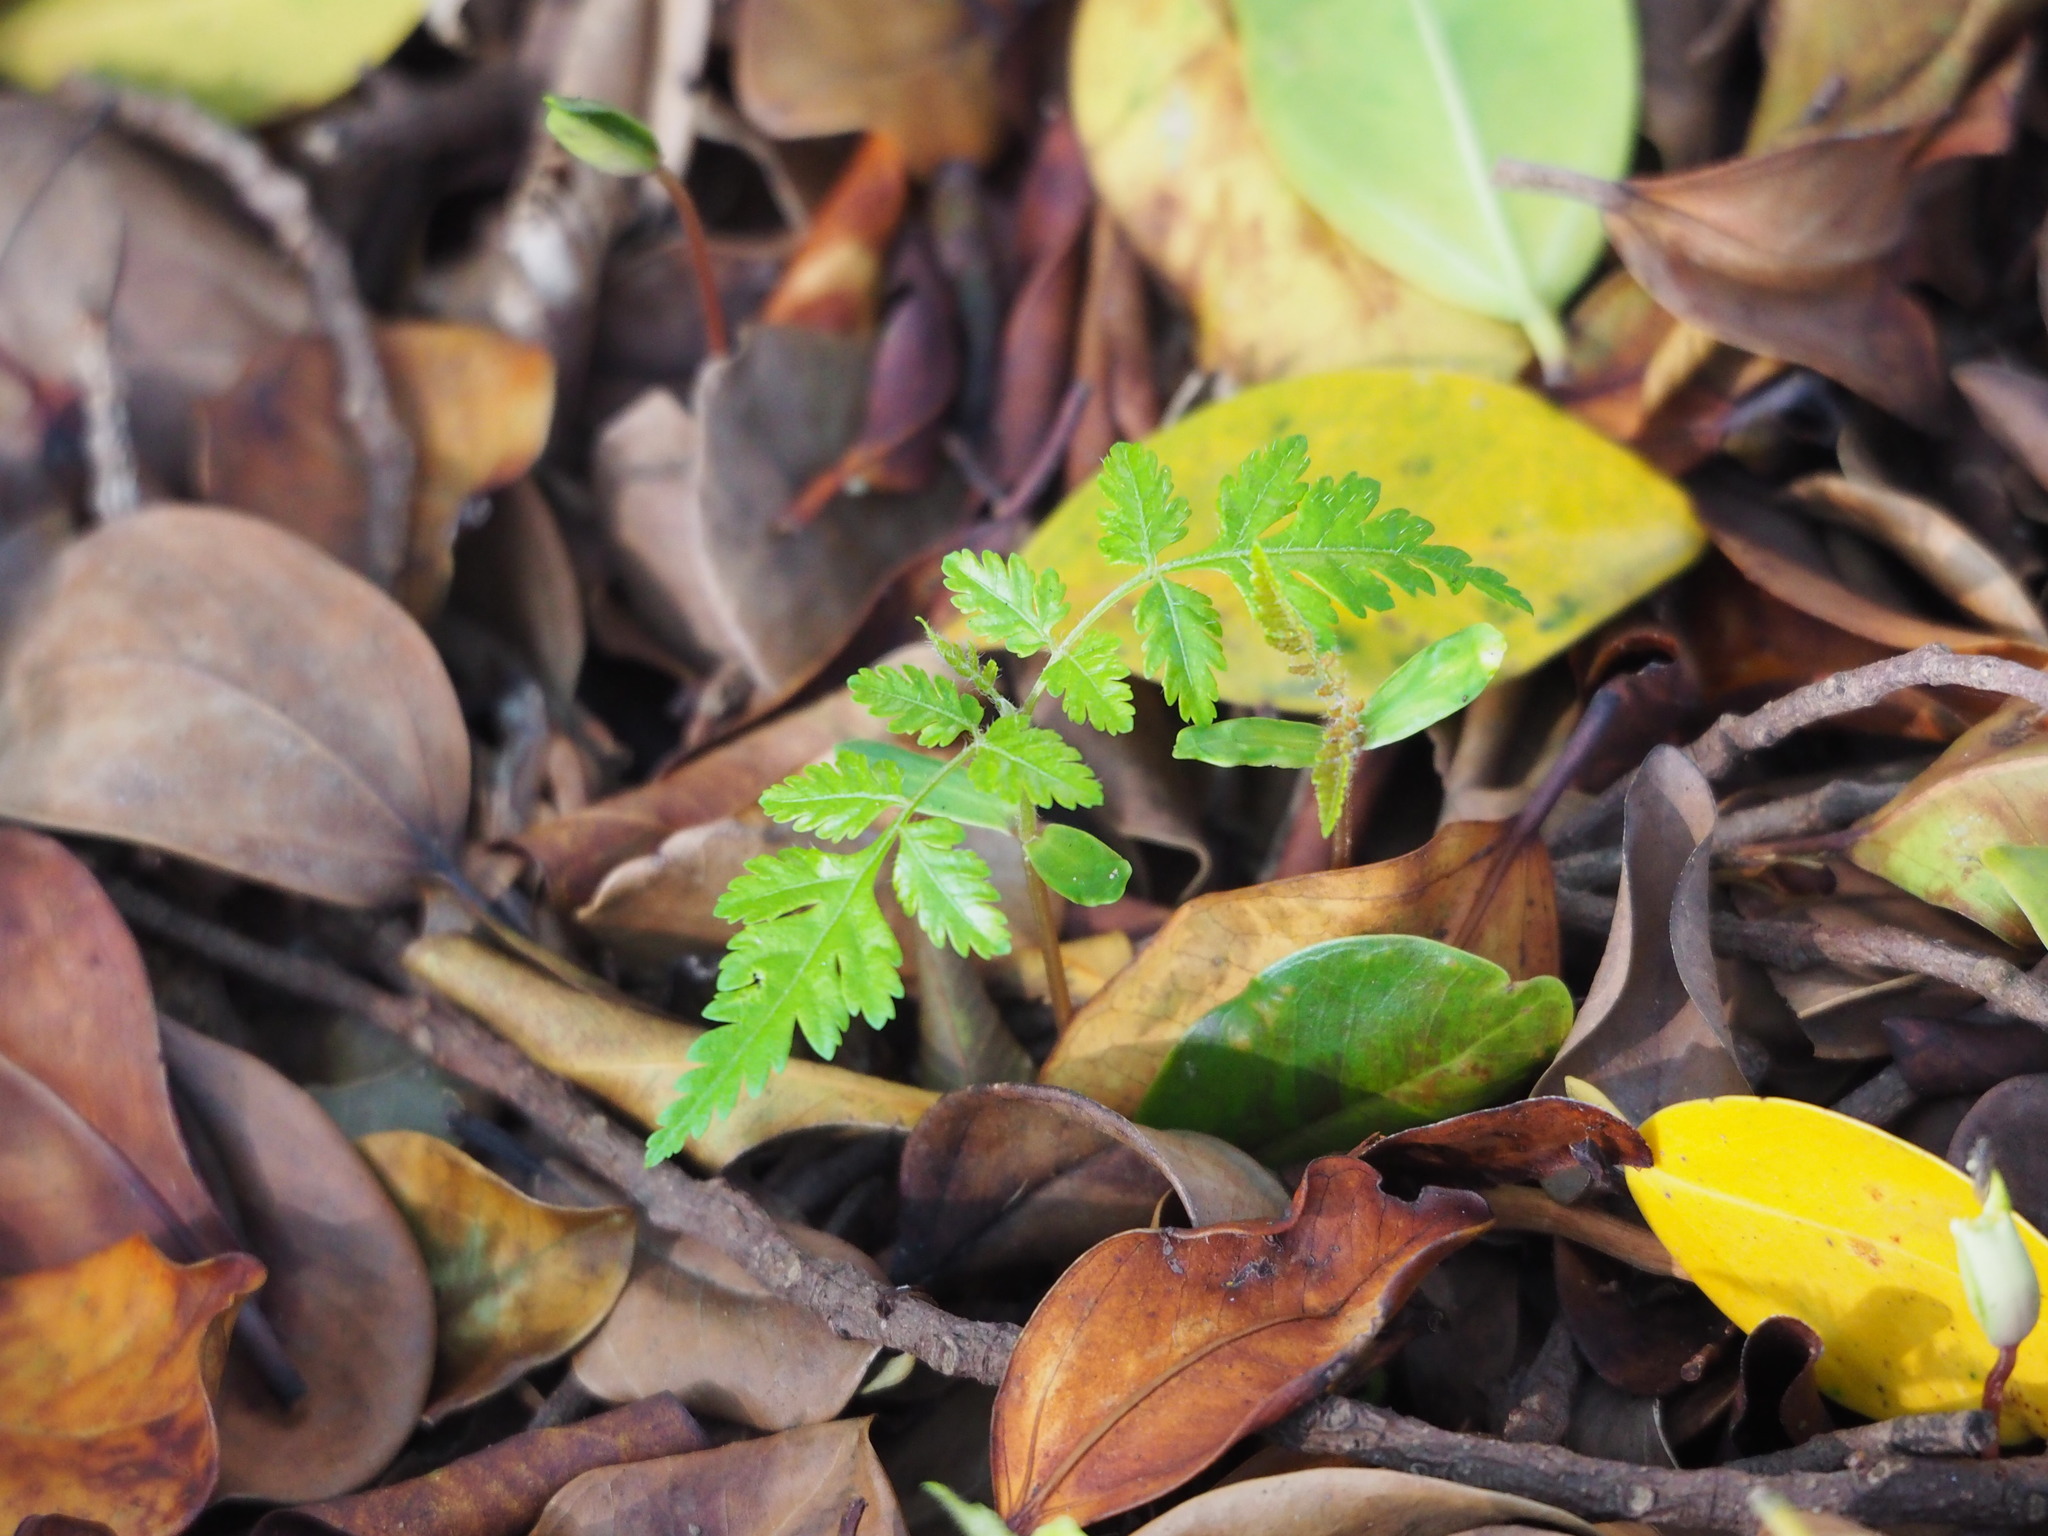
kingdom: Plantae
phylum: Tracheophyta
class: Magnoliopsida
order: Sapindales
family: Sapindaceae
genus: Koelreuteria
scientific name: Koelreuteria elegans
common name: Chinese flame tree
